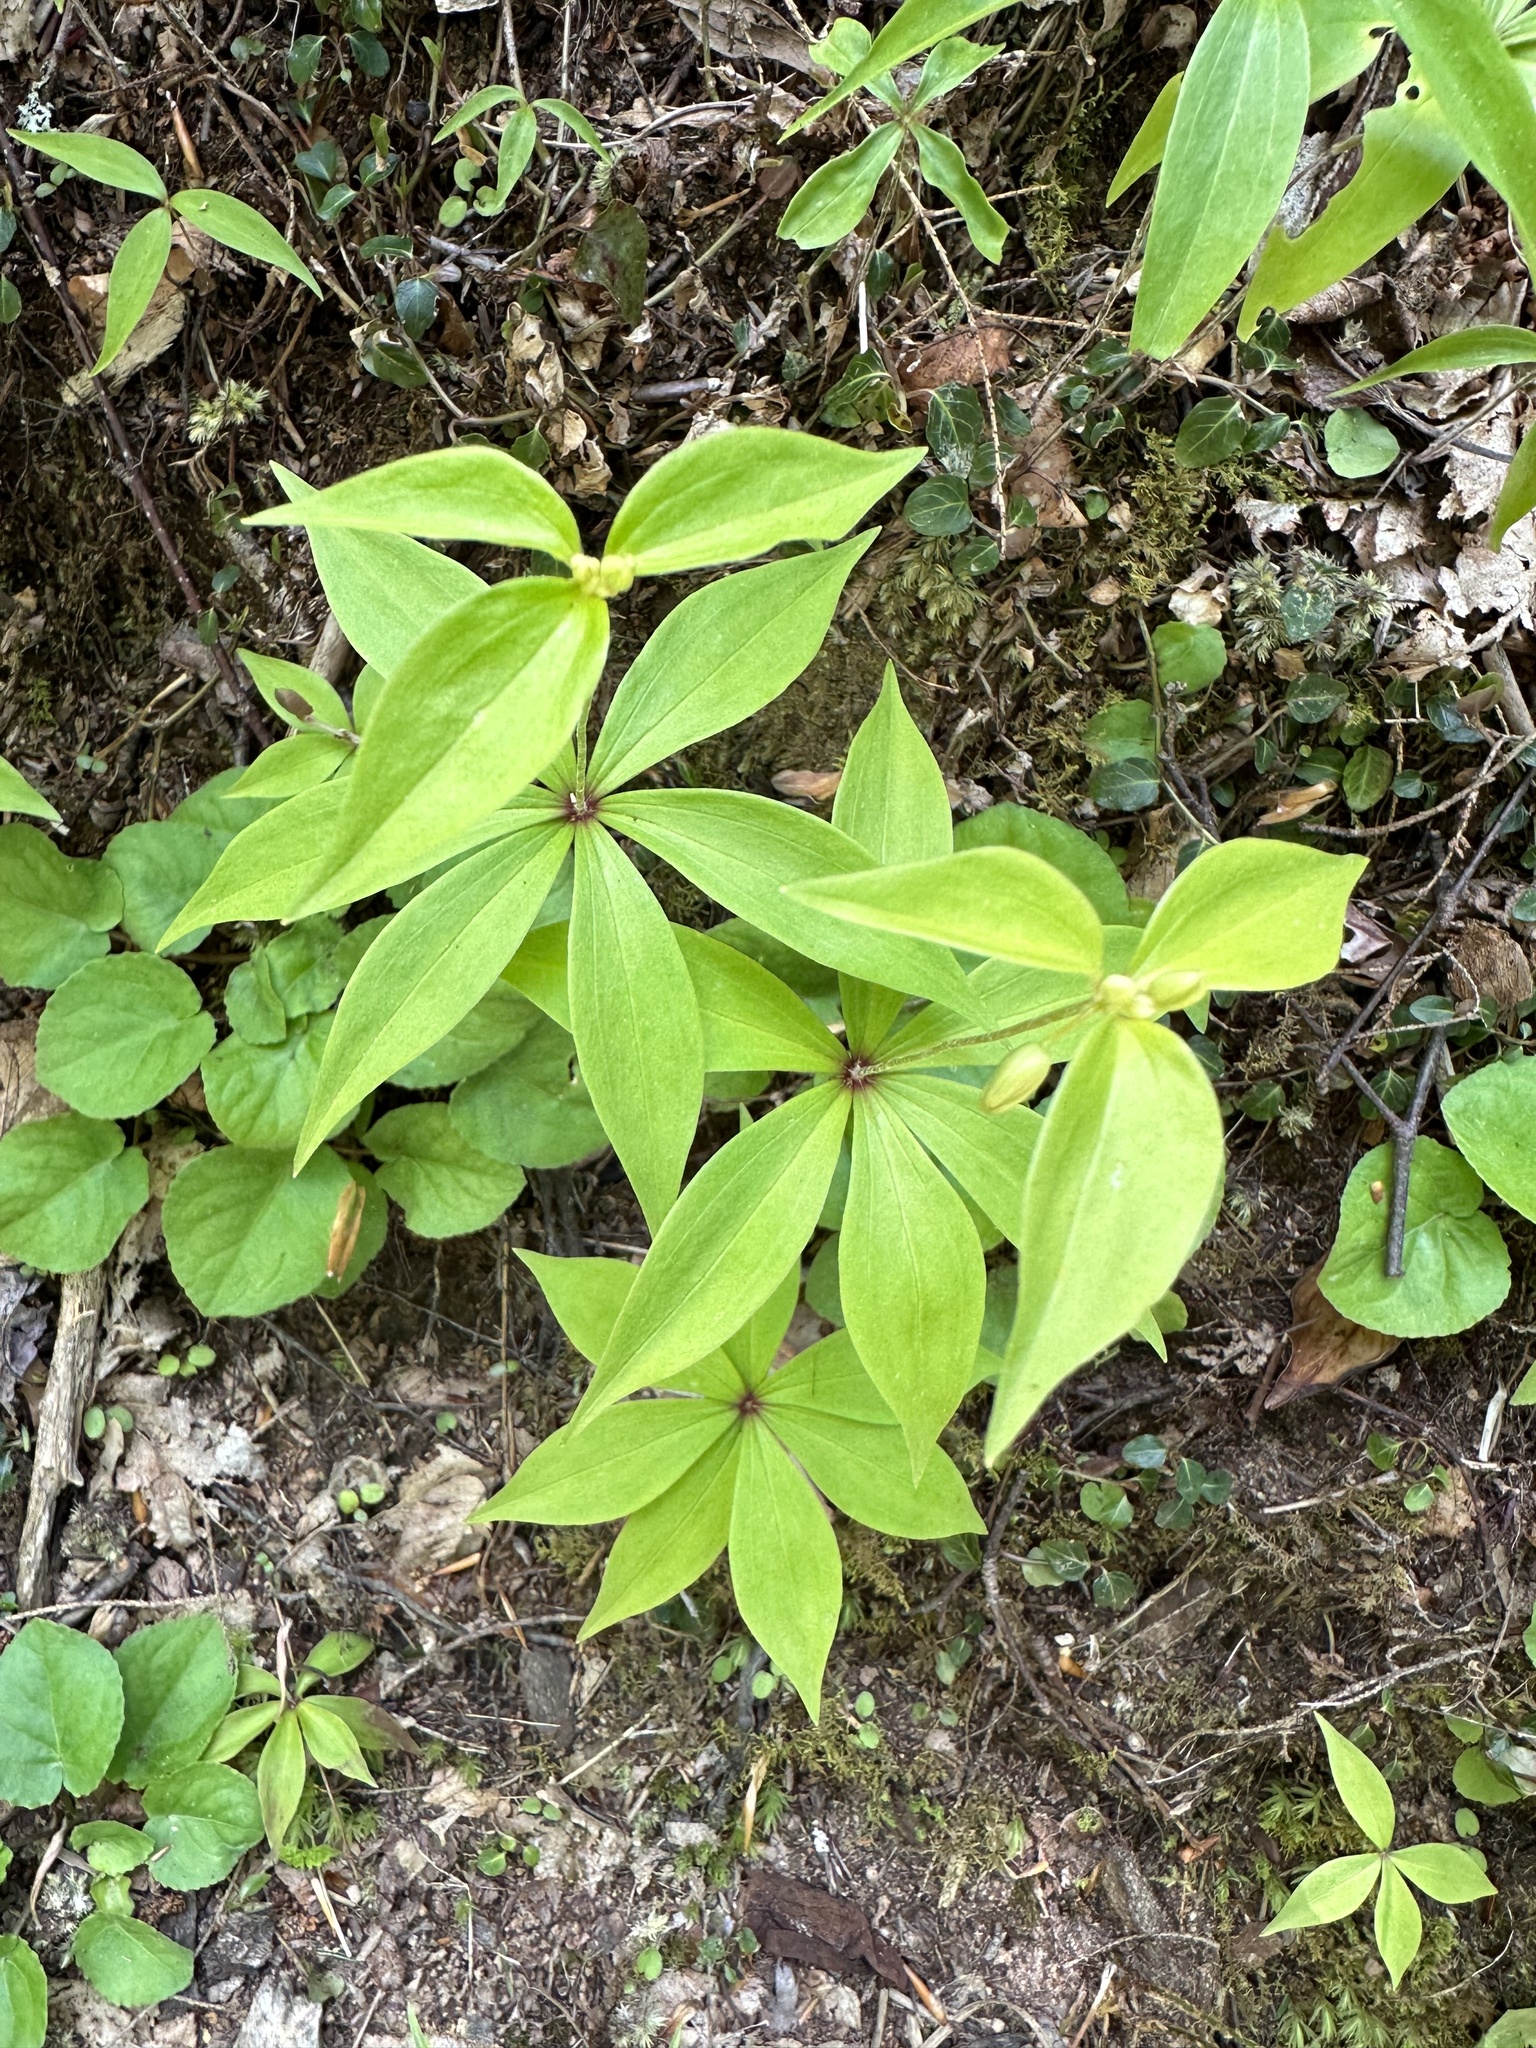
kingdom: Plantae
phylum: Tracheophyta
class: Liliopsida
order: Liliales
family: Liliaceae
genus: Medeola
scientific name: Medeola virginiana
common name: Indian cucumber-root
